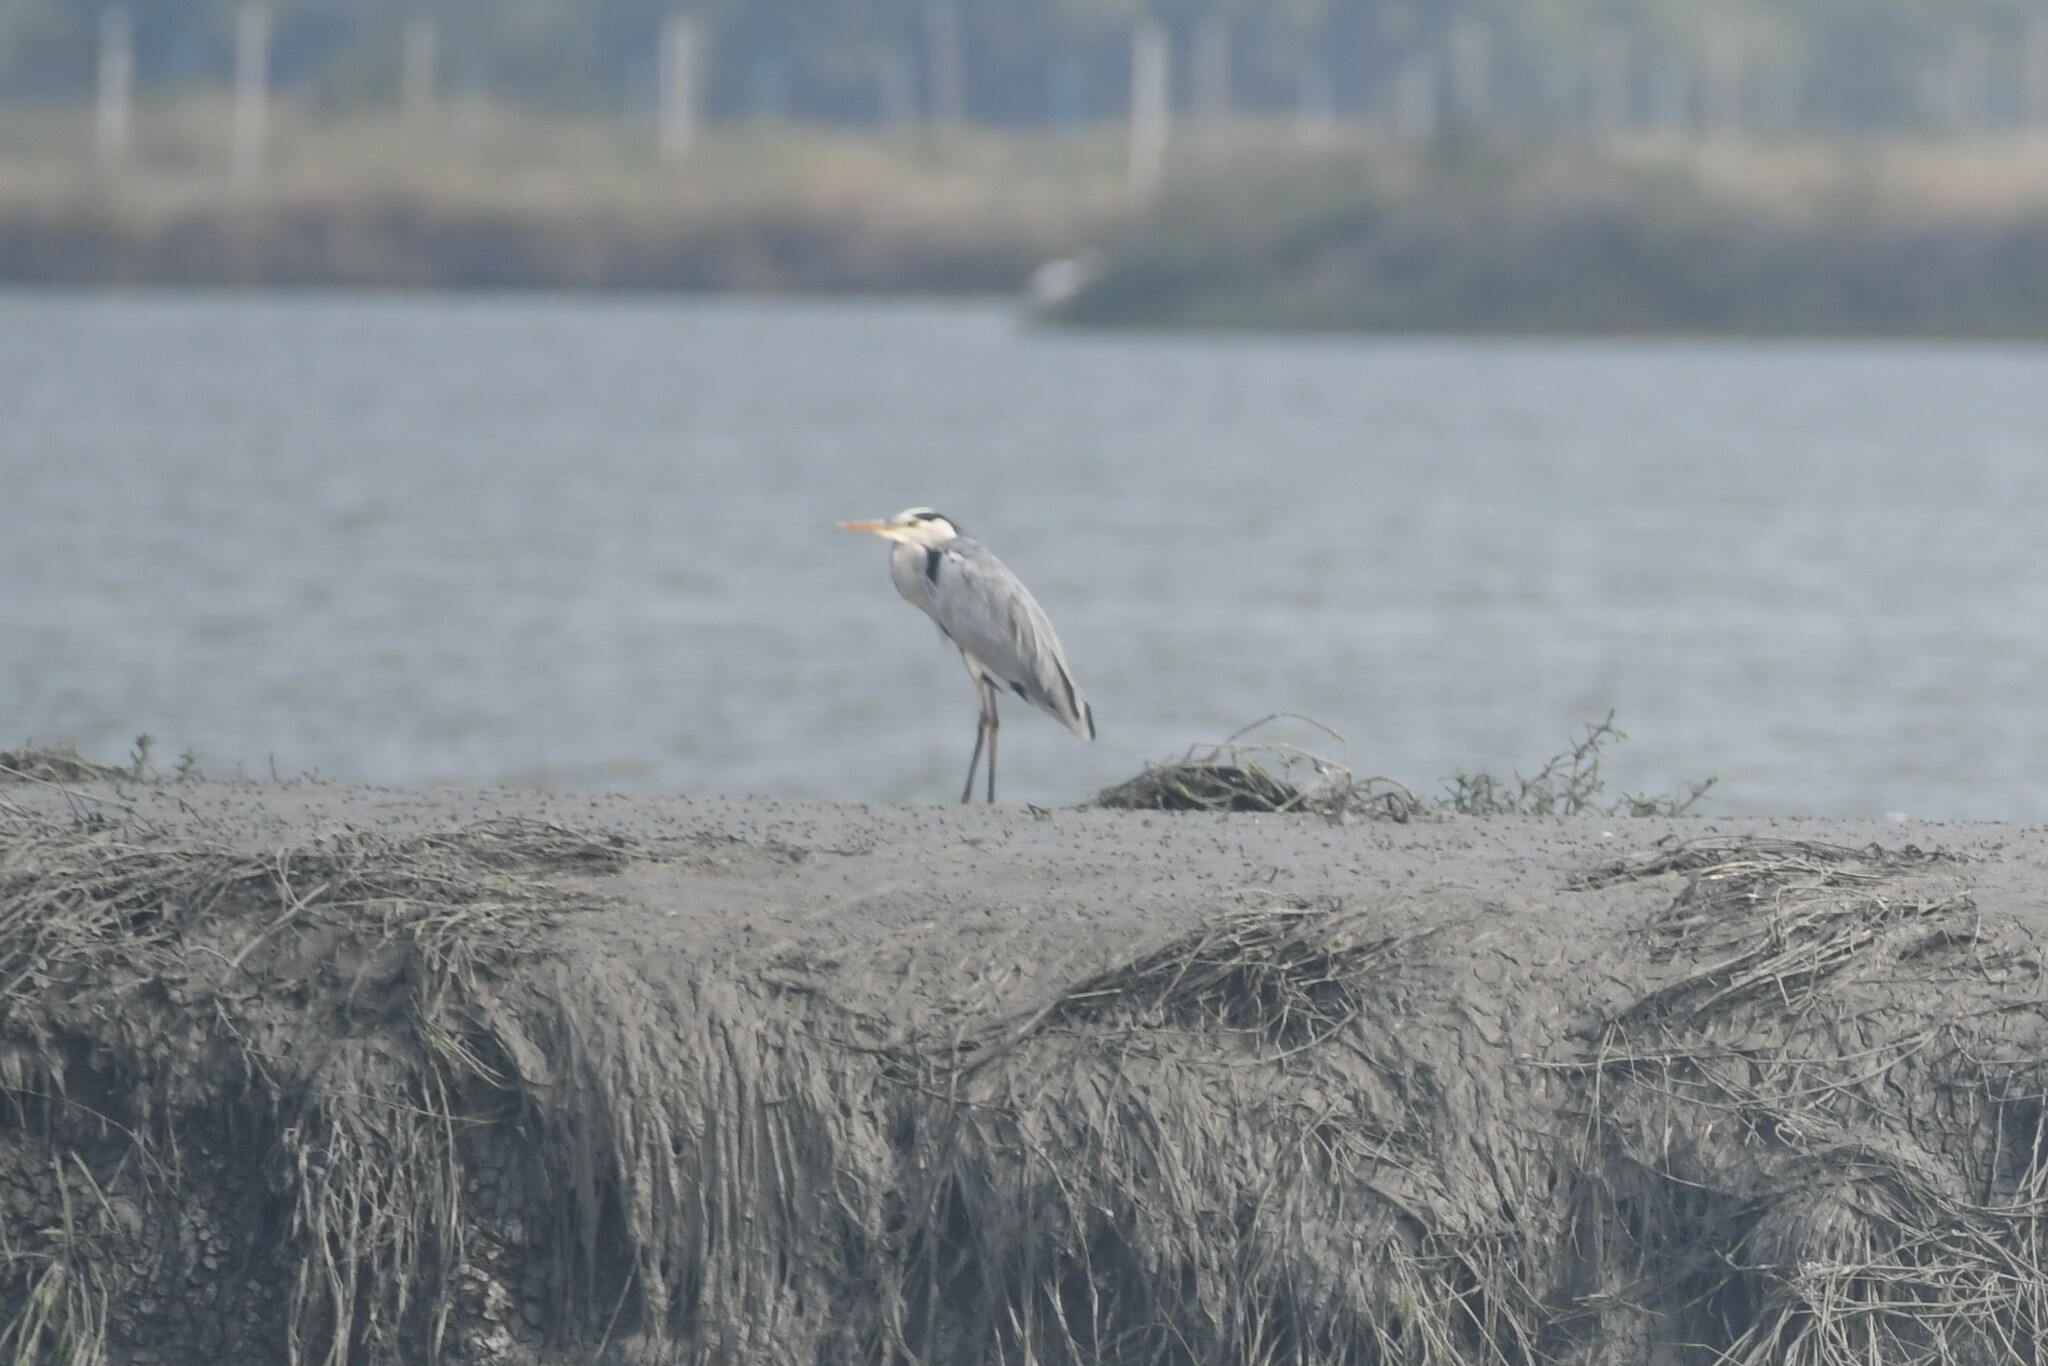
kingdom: Animalia
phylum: Chordata
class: Aves
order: Pelecaniformes
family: Ardeidae
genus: Ardea
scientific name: Ardea cinerea
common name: Grey heron
